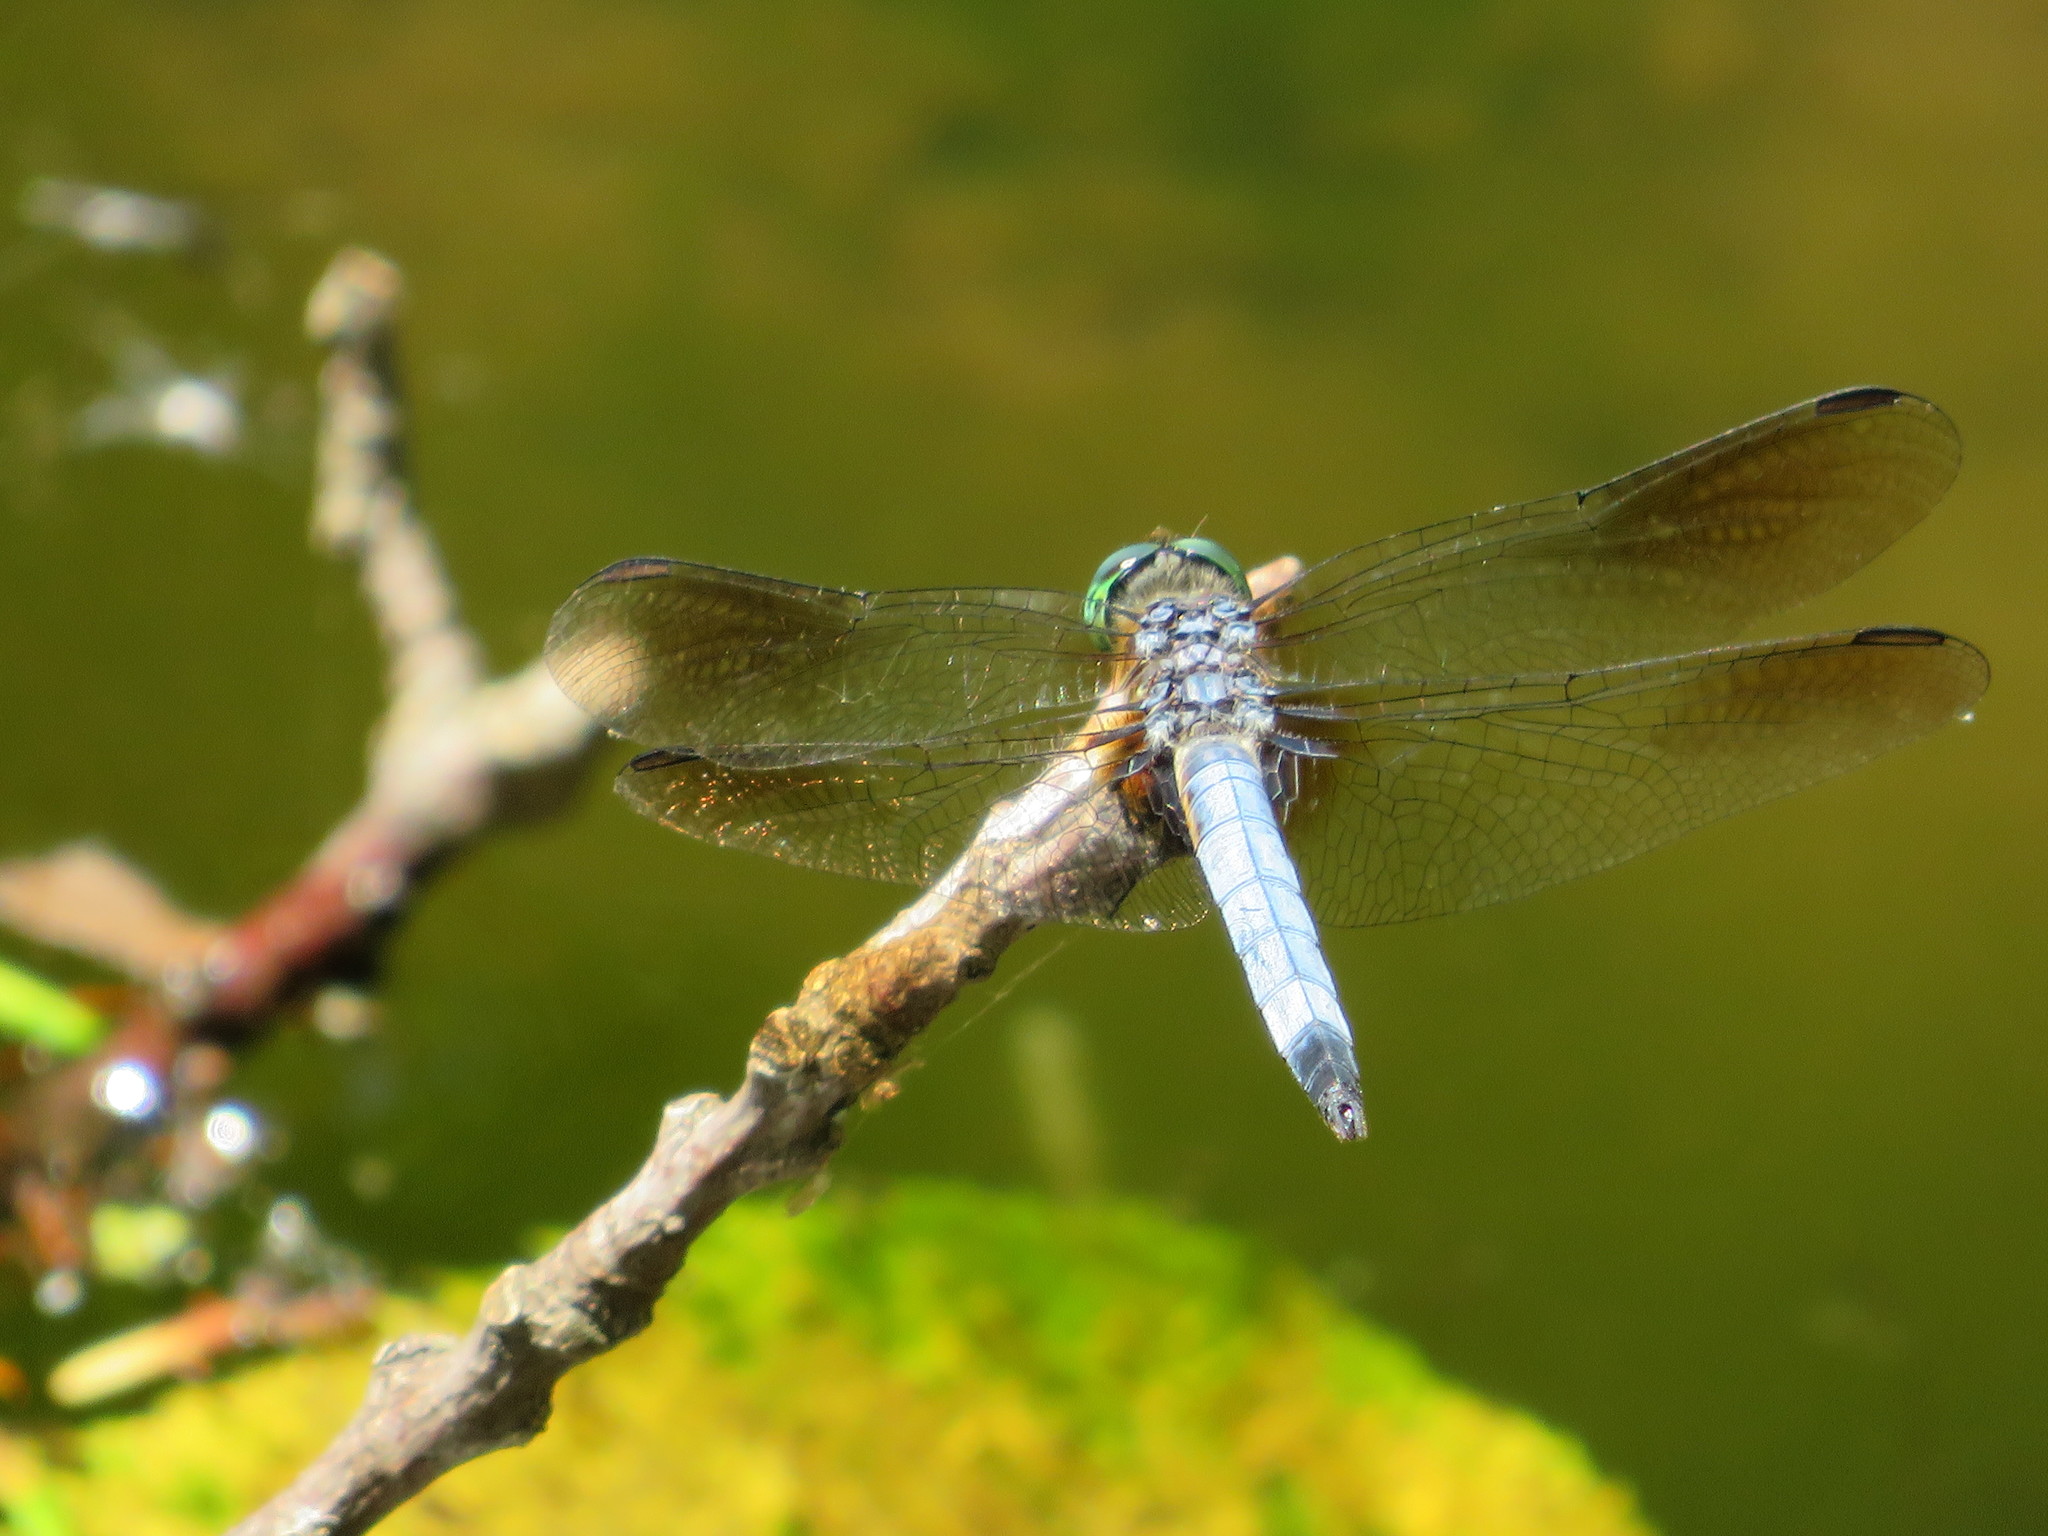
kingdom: Animalia
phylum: Arthropoda
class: Insecta
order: Odonata
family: Libellulidae
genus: Pachydiplax
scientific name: Pachydiplax longipennis
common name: Blue dasher
